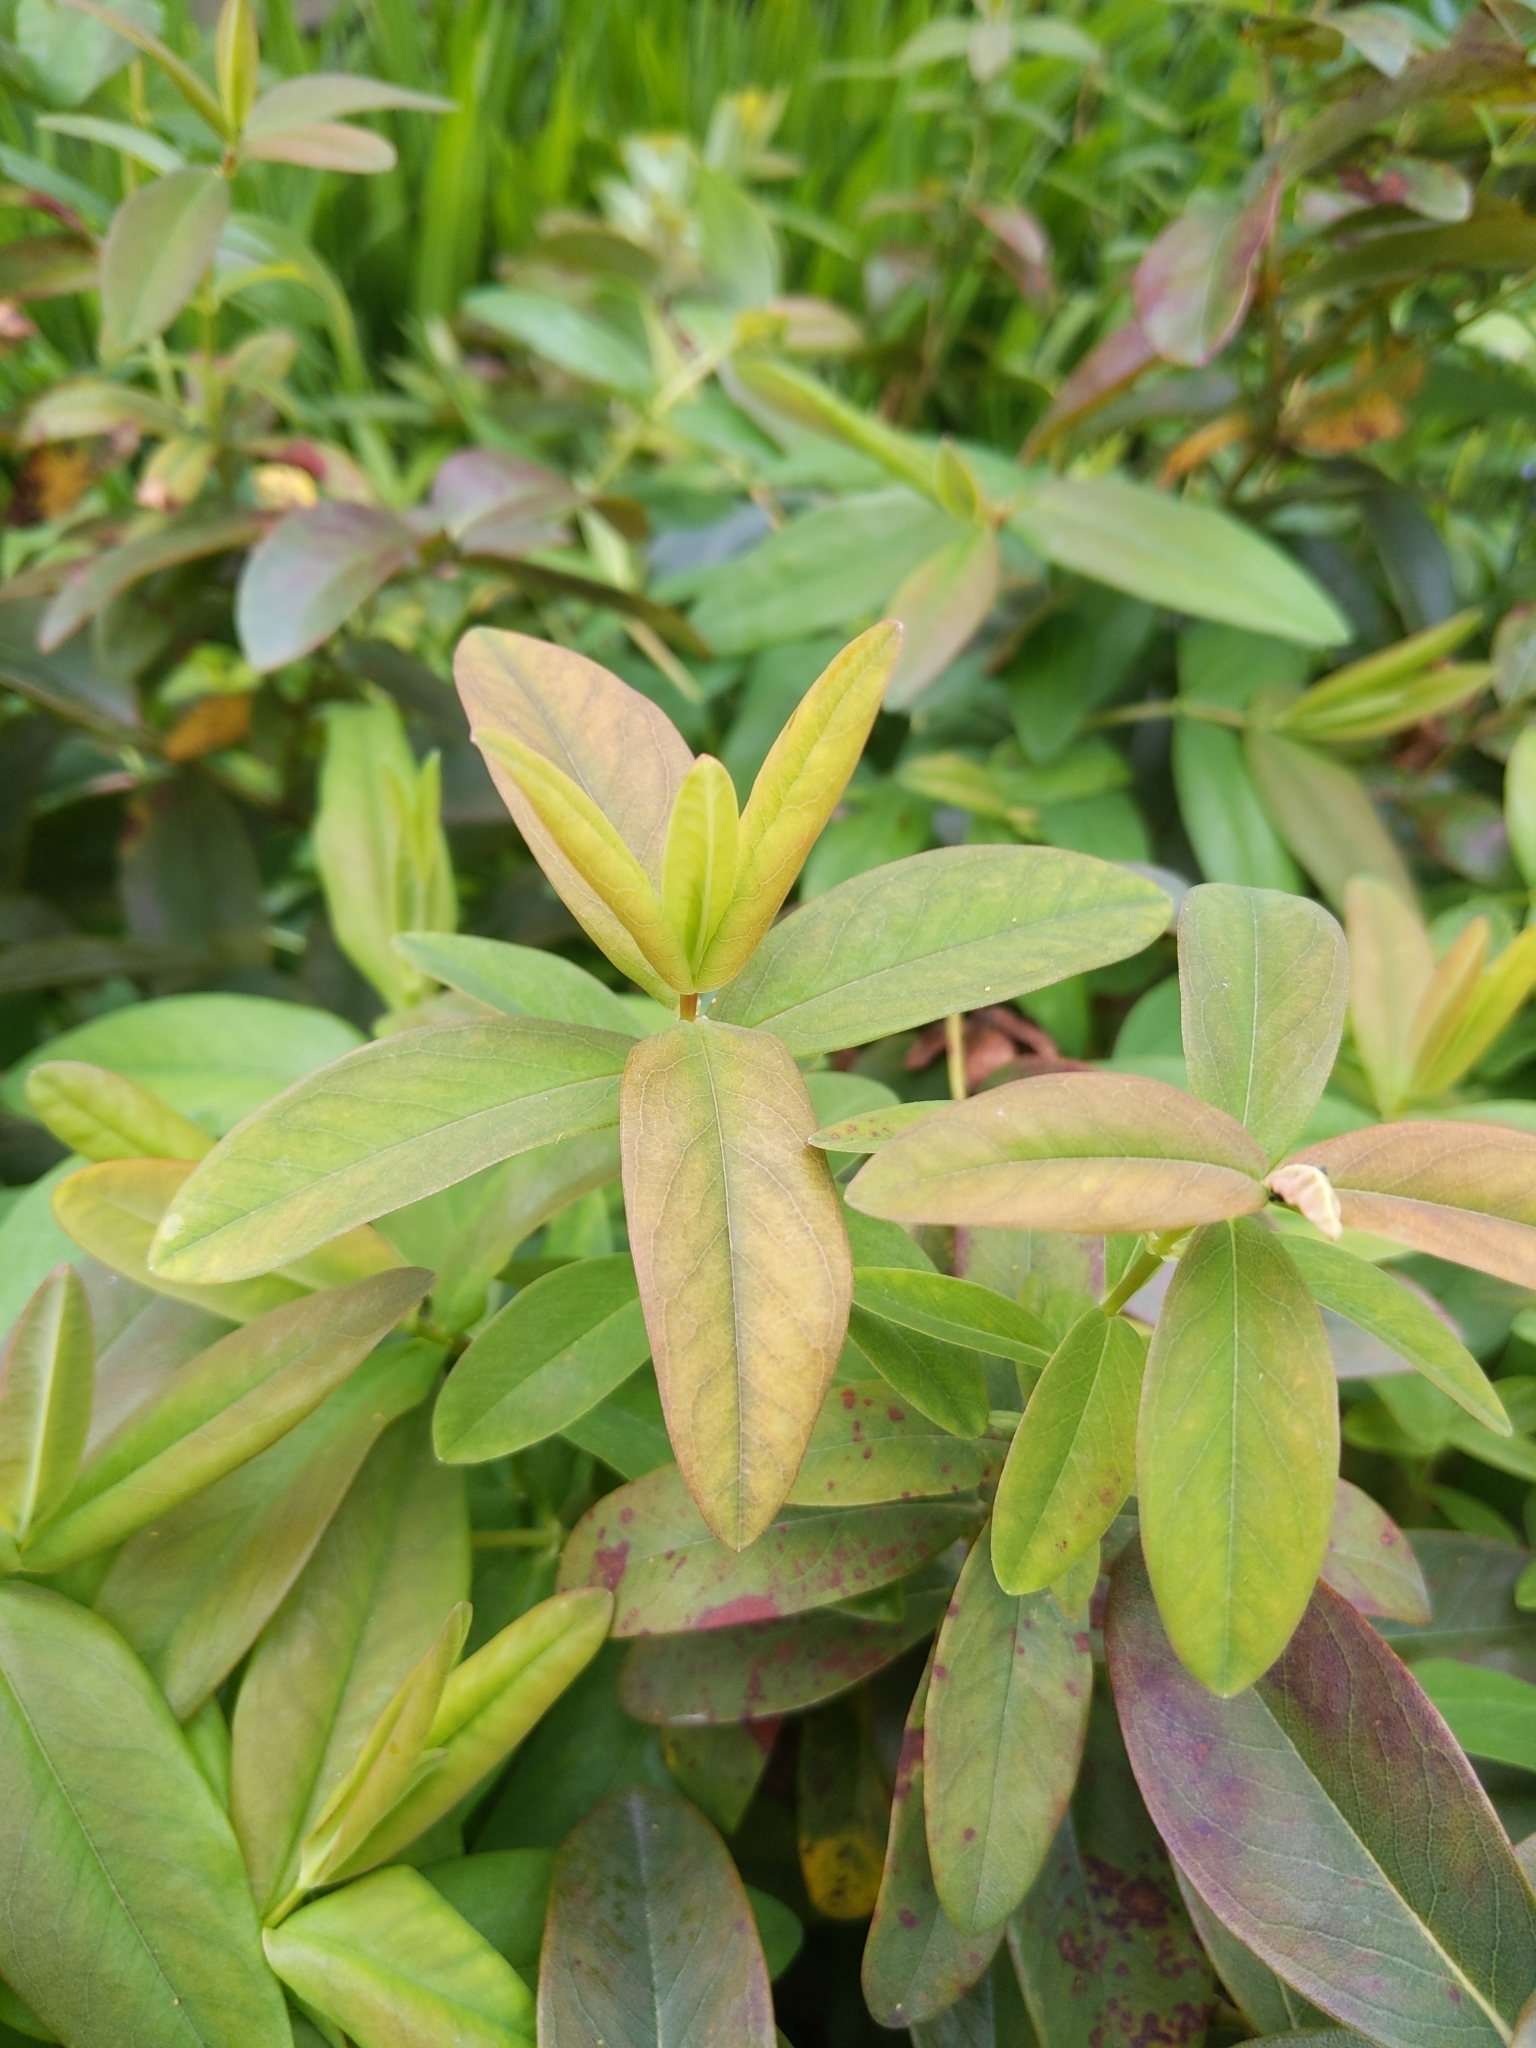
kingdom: Plantae
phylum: Tracheophyta
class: Magnoliopsida
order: Malpighiales
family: Hypericaceae
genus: Hypericum
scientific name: Hypericum calycinum
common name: Rose-of-sharon
